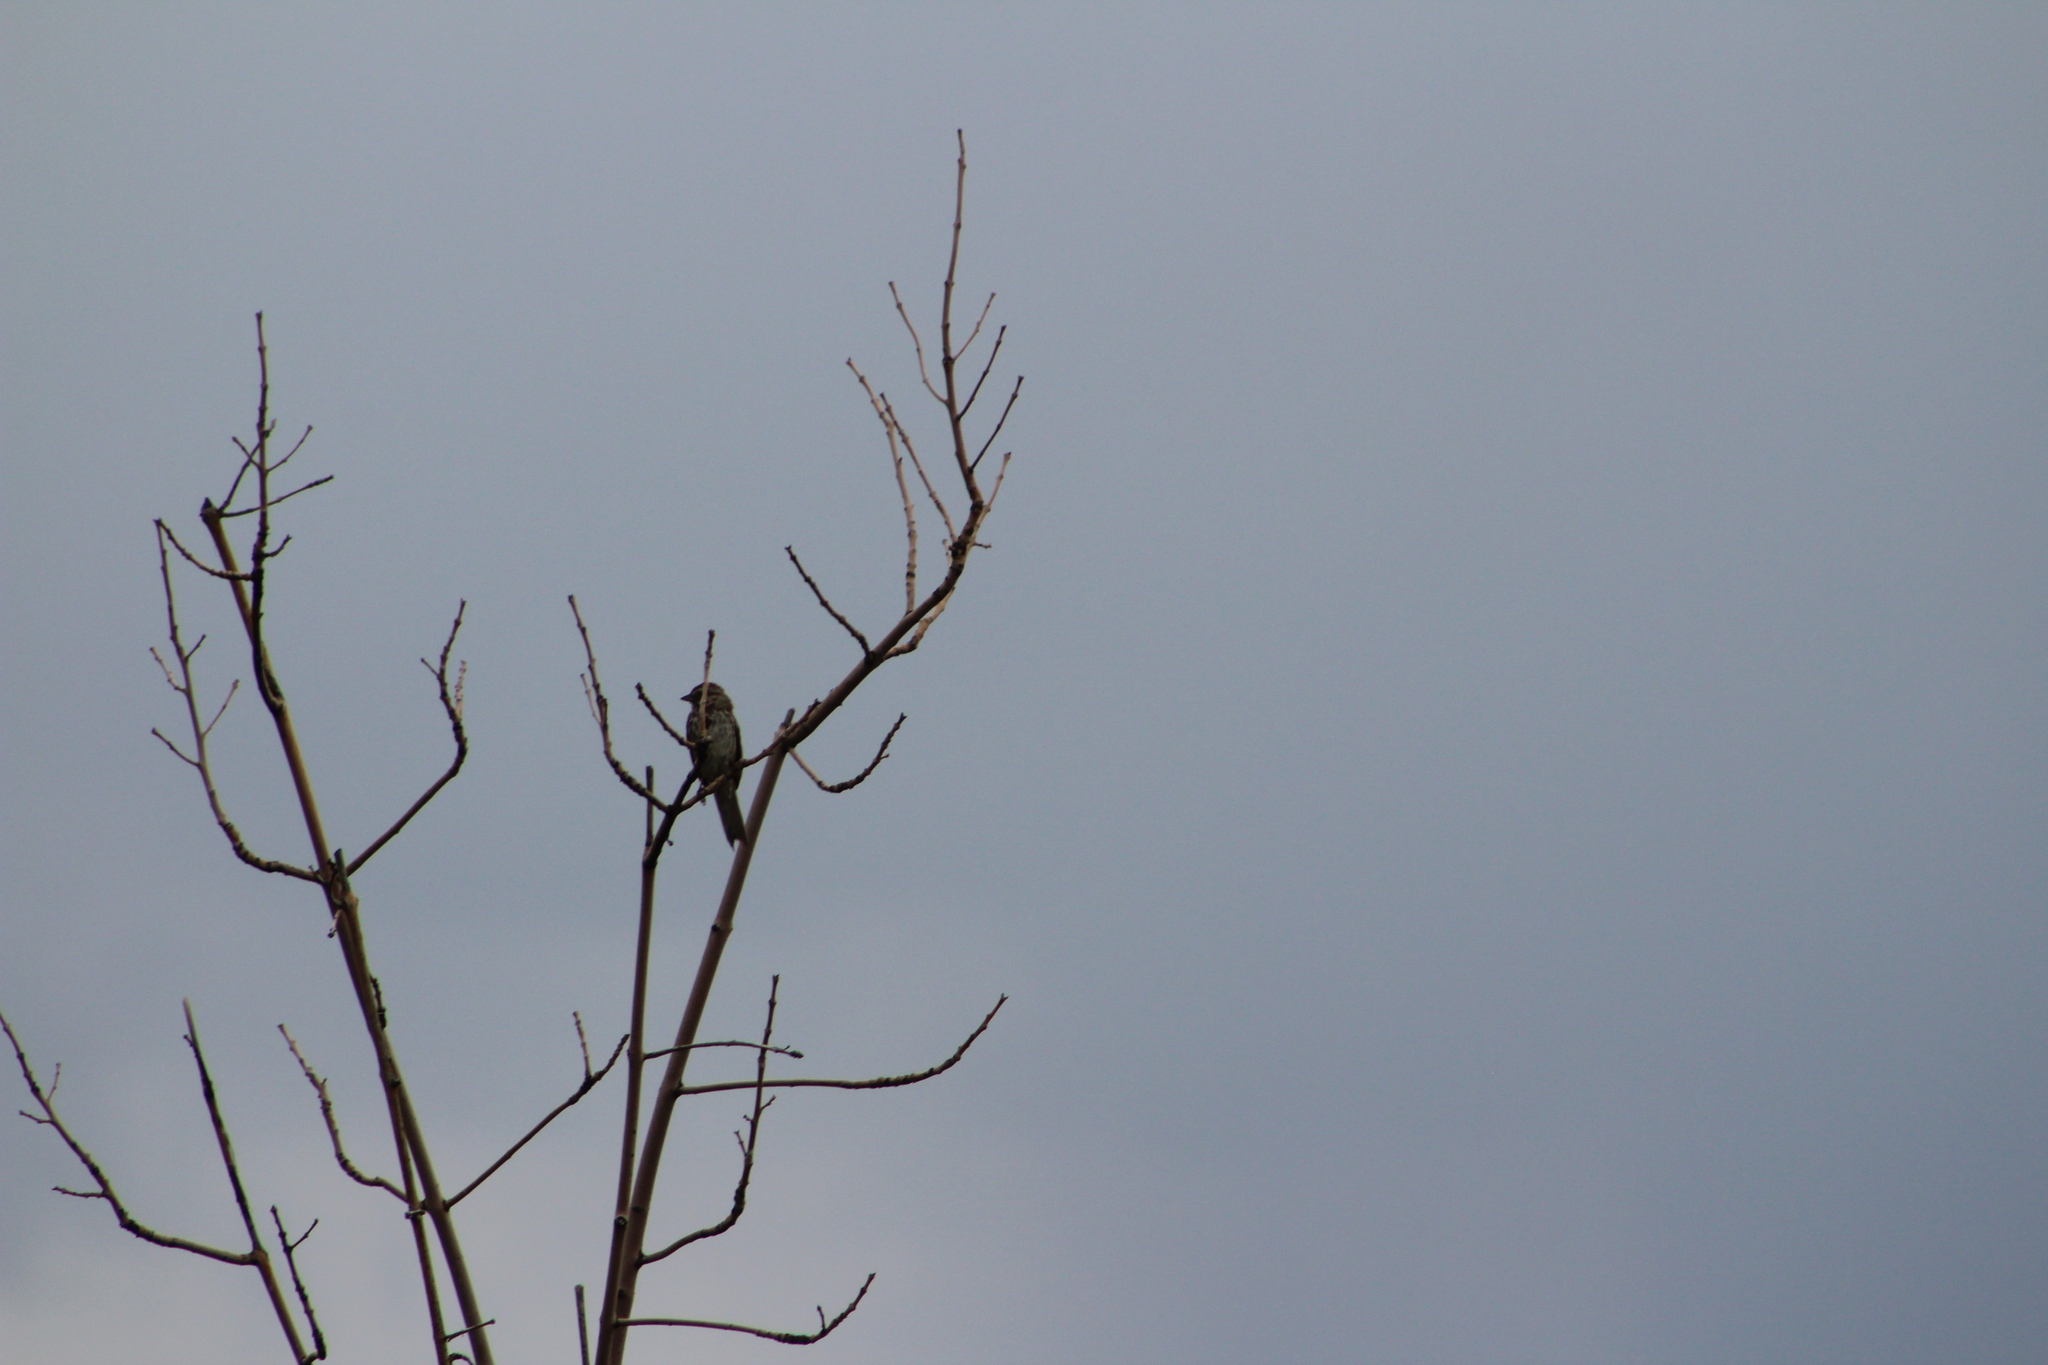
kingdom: Animalia
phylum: Chordata
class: Aves
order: Passeriformes
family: Passerellidae
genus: Melospiza
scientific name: Melospiza melodia
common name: Song sparrow
